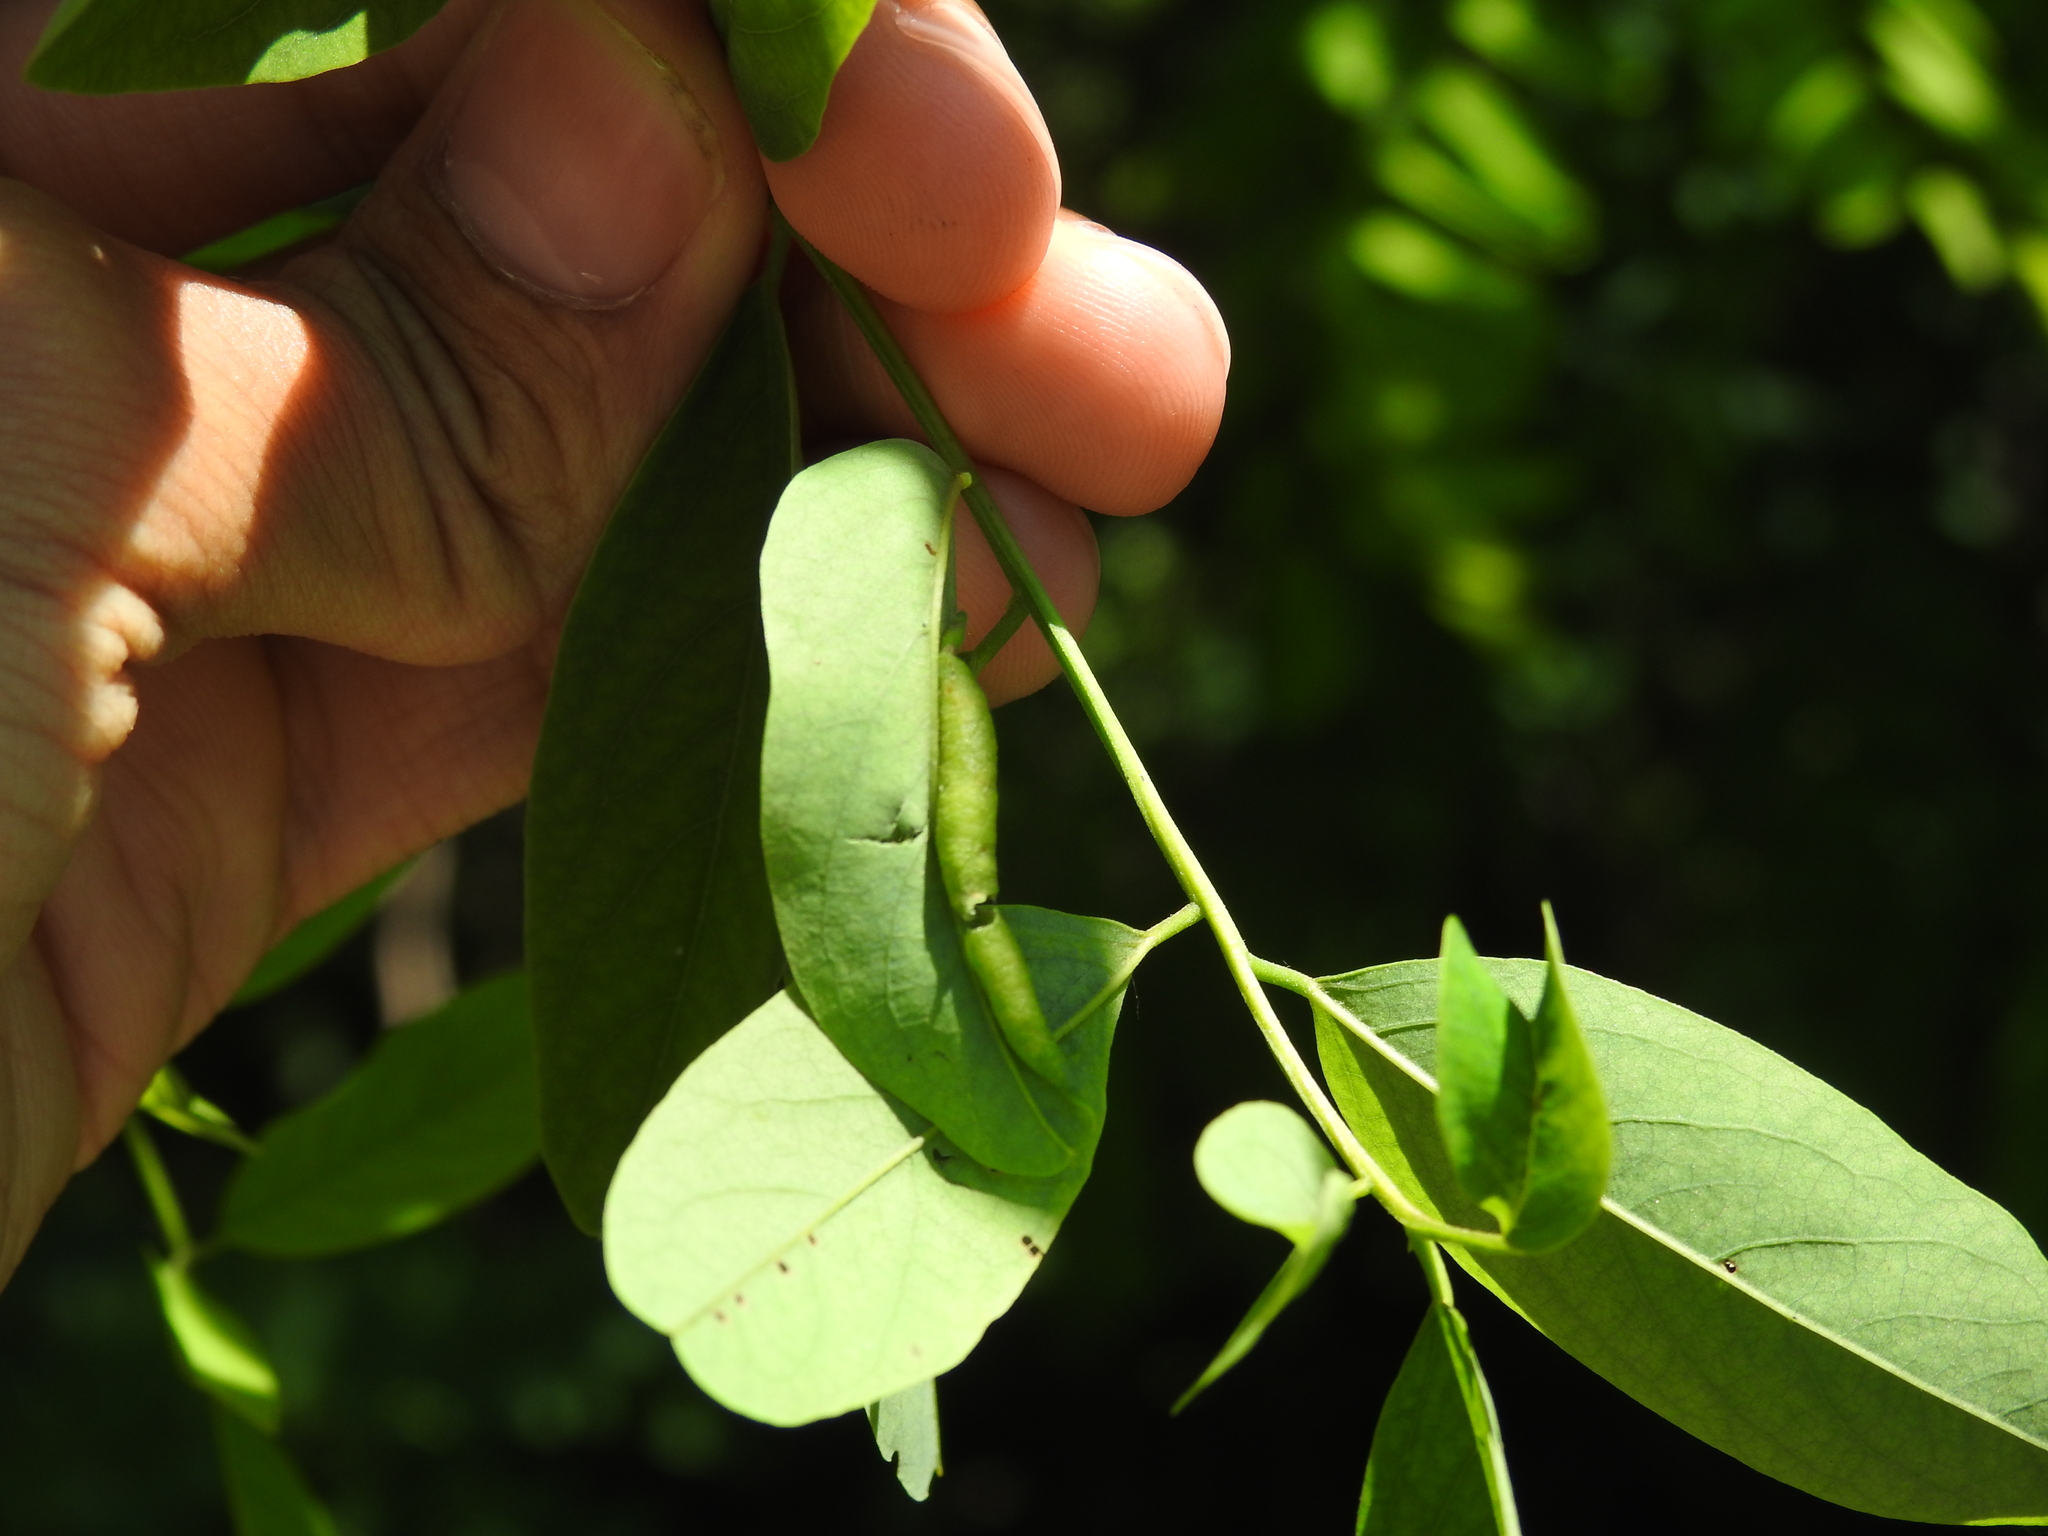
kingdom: Animalia
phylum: Arthropoda
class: Insecta
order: Diptera
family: Cecidomyiidae
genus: Obolodiplosis
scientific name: Obolodiplosis robiniae
